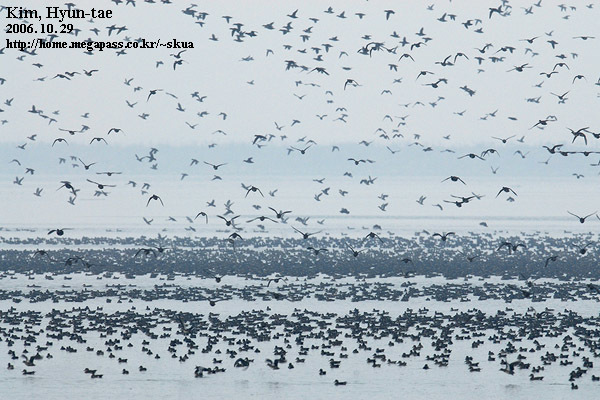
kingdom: Animalia
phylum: Chordata
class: Aves
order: Anseriformes
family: Anatidae
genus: Sibirionetta
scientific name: Sibirionetta formosa
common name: Baikal teal
